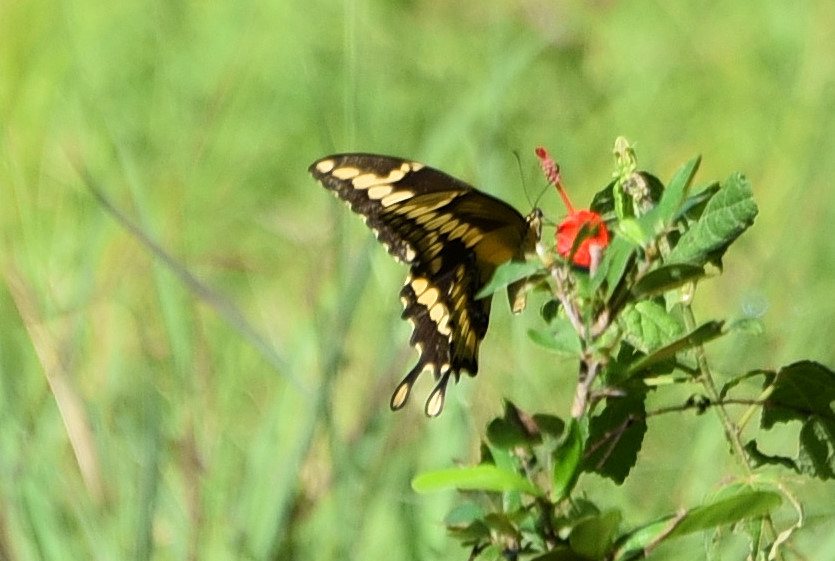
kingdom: Animalia
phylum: Arthropoda
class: Insecta
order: Lepidoptera
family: Papilionidae
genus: Papilio
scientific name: Papilio cresphontes
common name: Giant swallowtail
